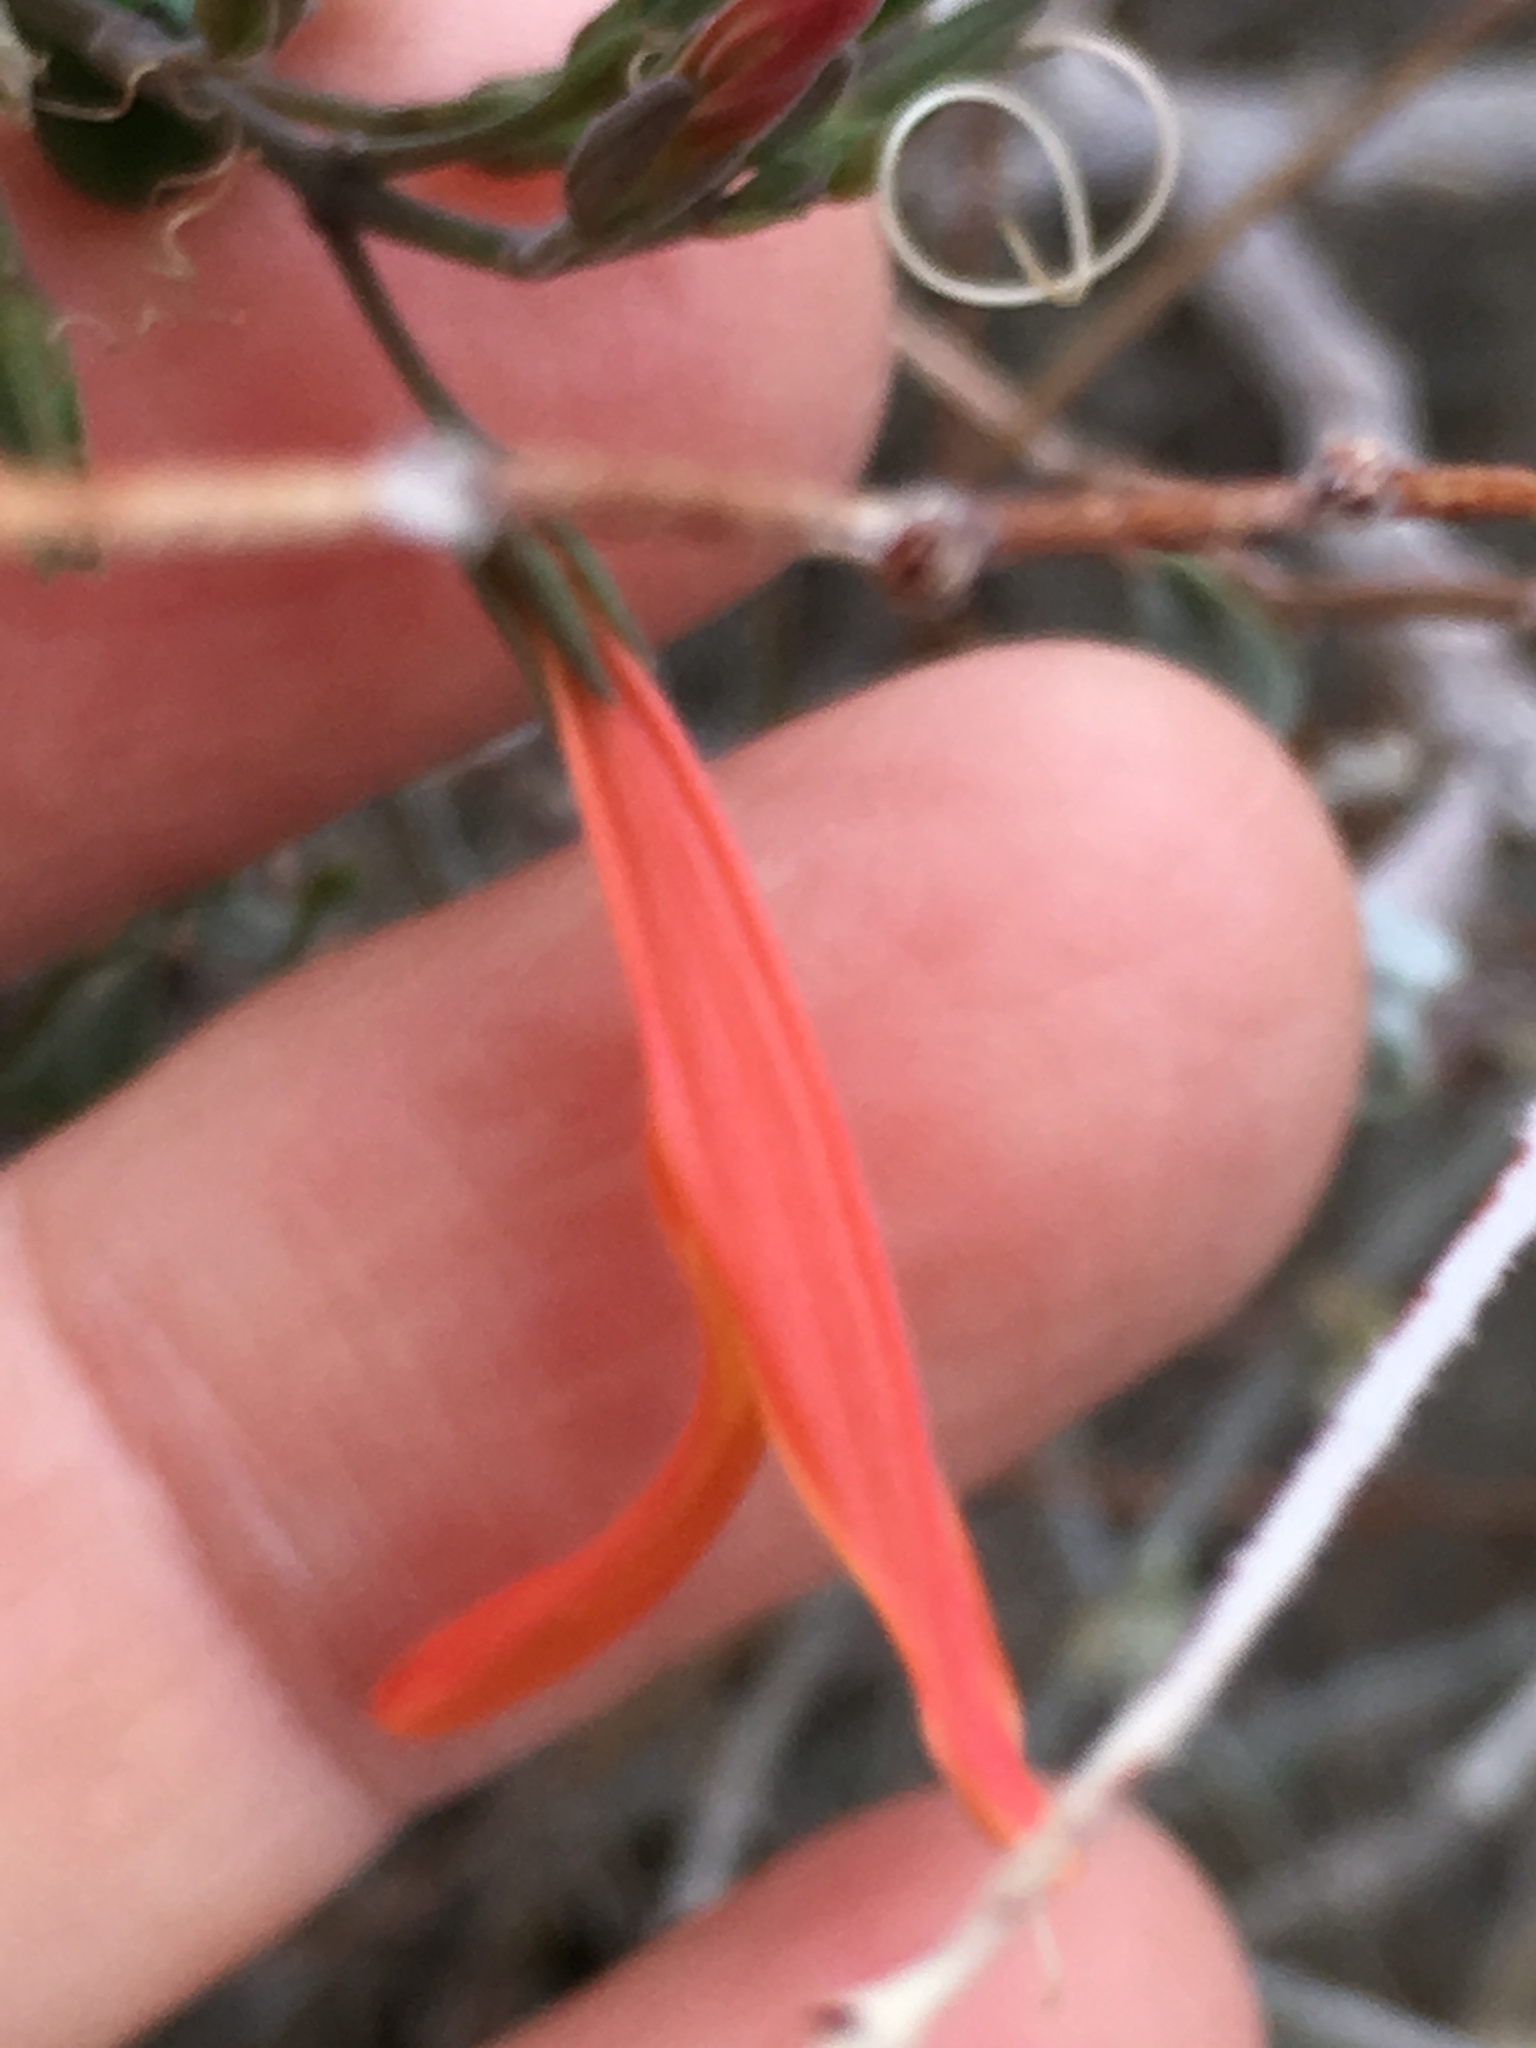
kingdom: Plantae
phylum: Tracheophyta
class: Magnoliopsida
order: Lamiales
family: Acanthaceae
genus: Justicia
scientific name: Justicia californica
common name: Chuparosa-honeysuckle
